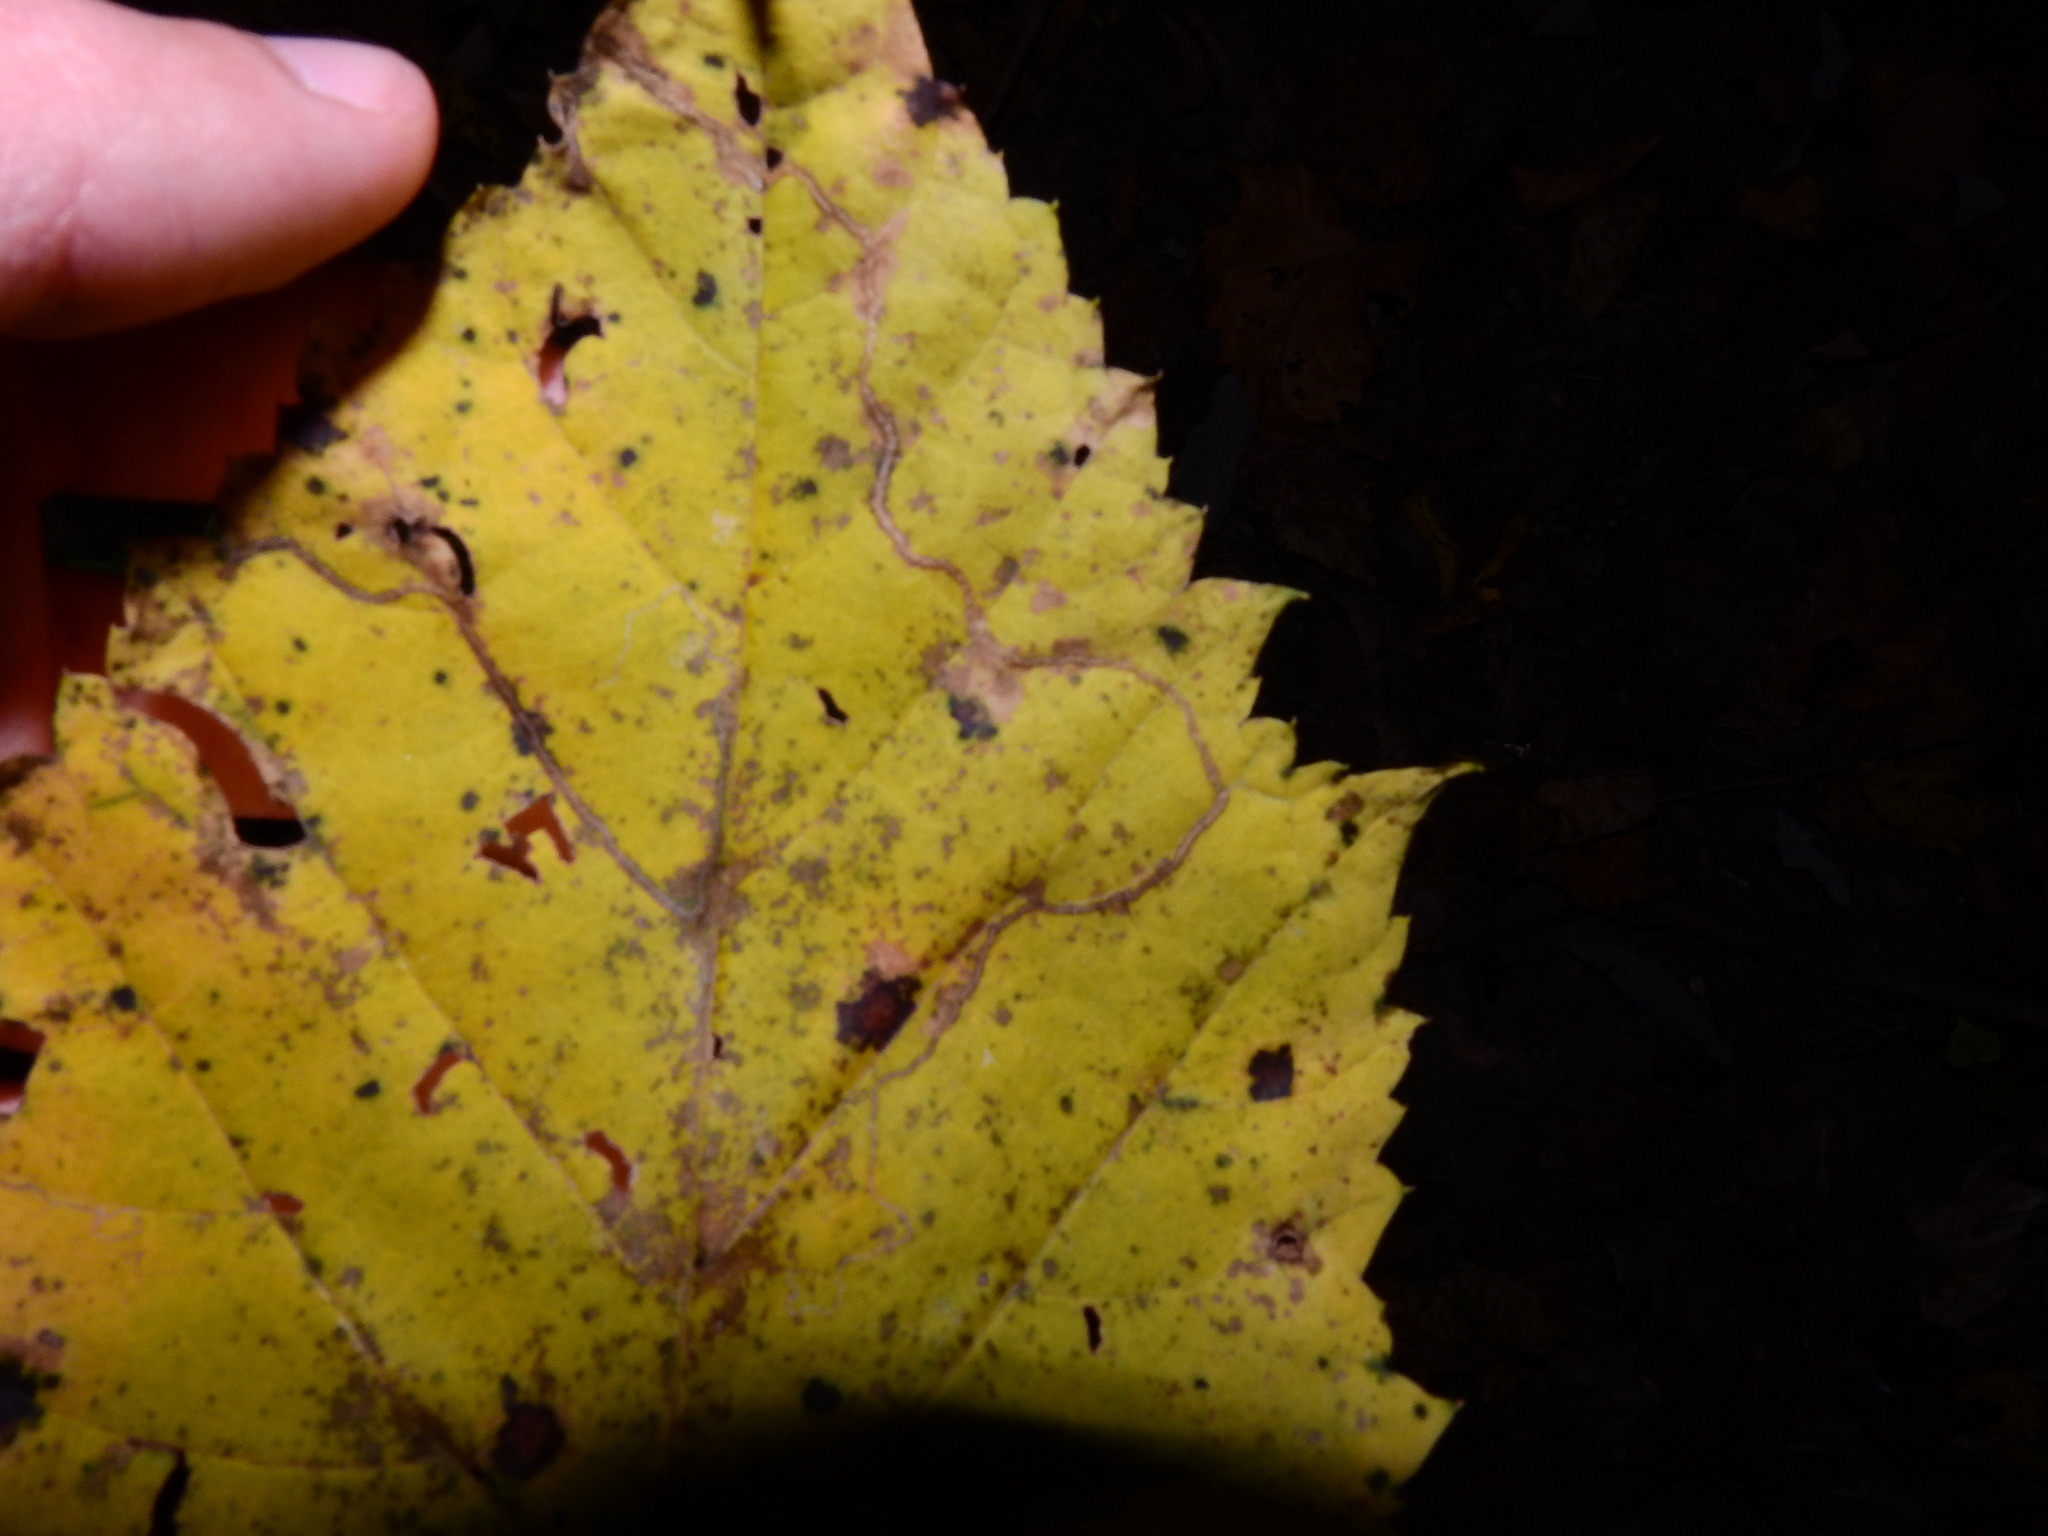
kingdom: Animalia
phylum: Arthropoda
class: Insecta
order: Lepidoptera
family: Gracillariidae
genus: Phyllocnistis
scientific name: Phyllocnistis vitifoliella
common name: Grape leaf-miner moth
